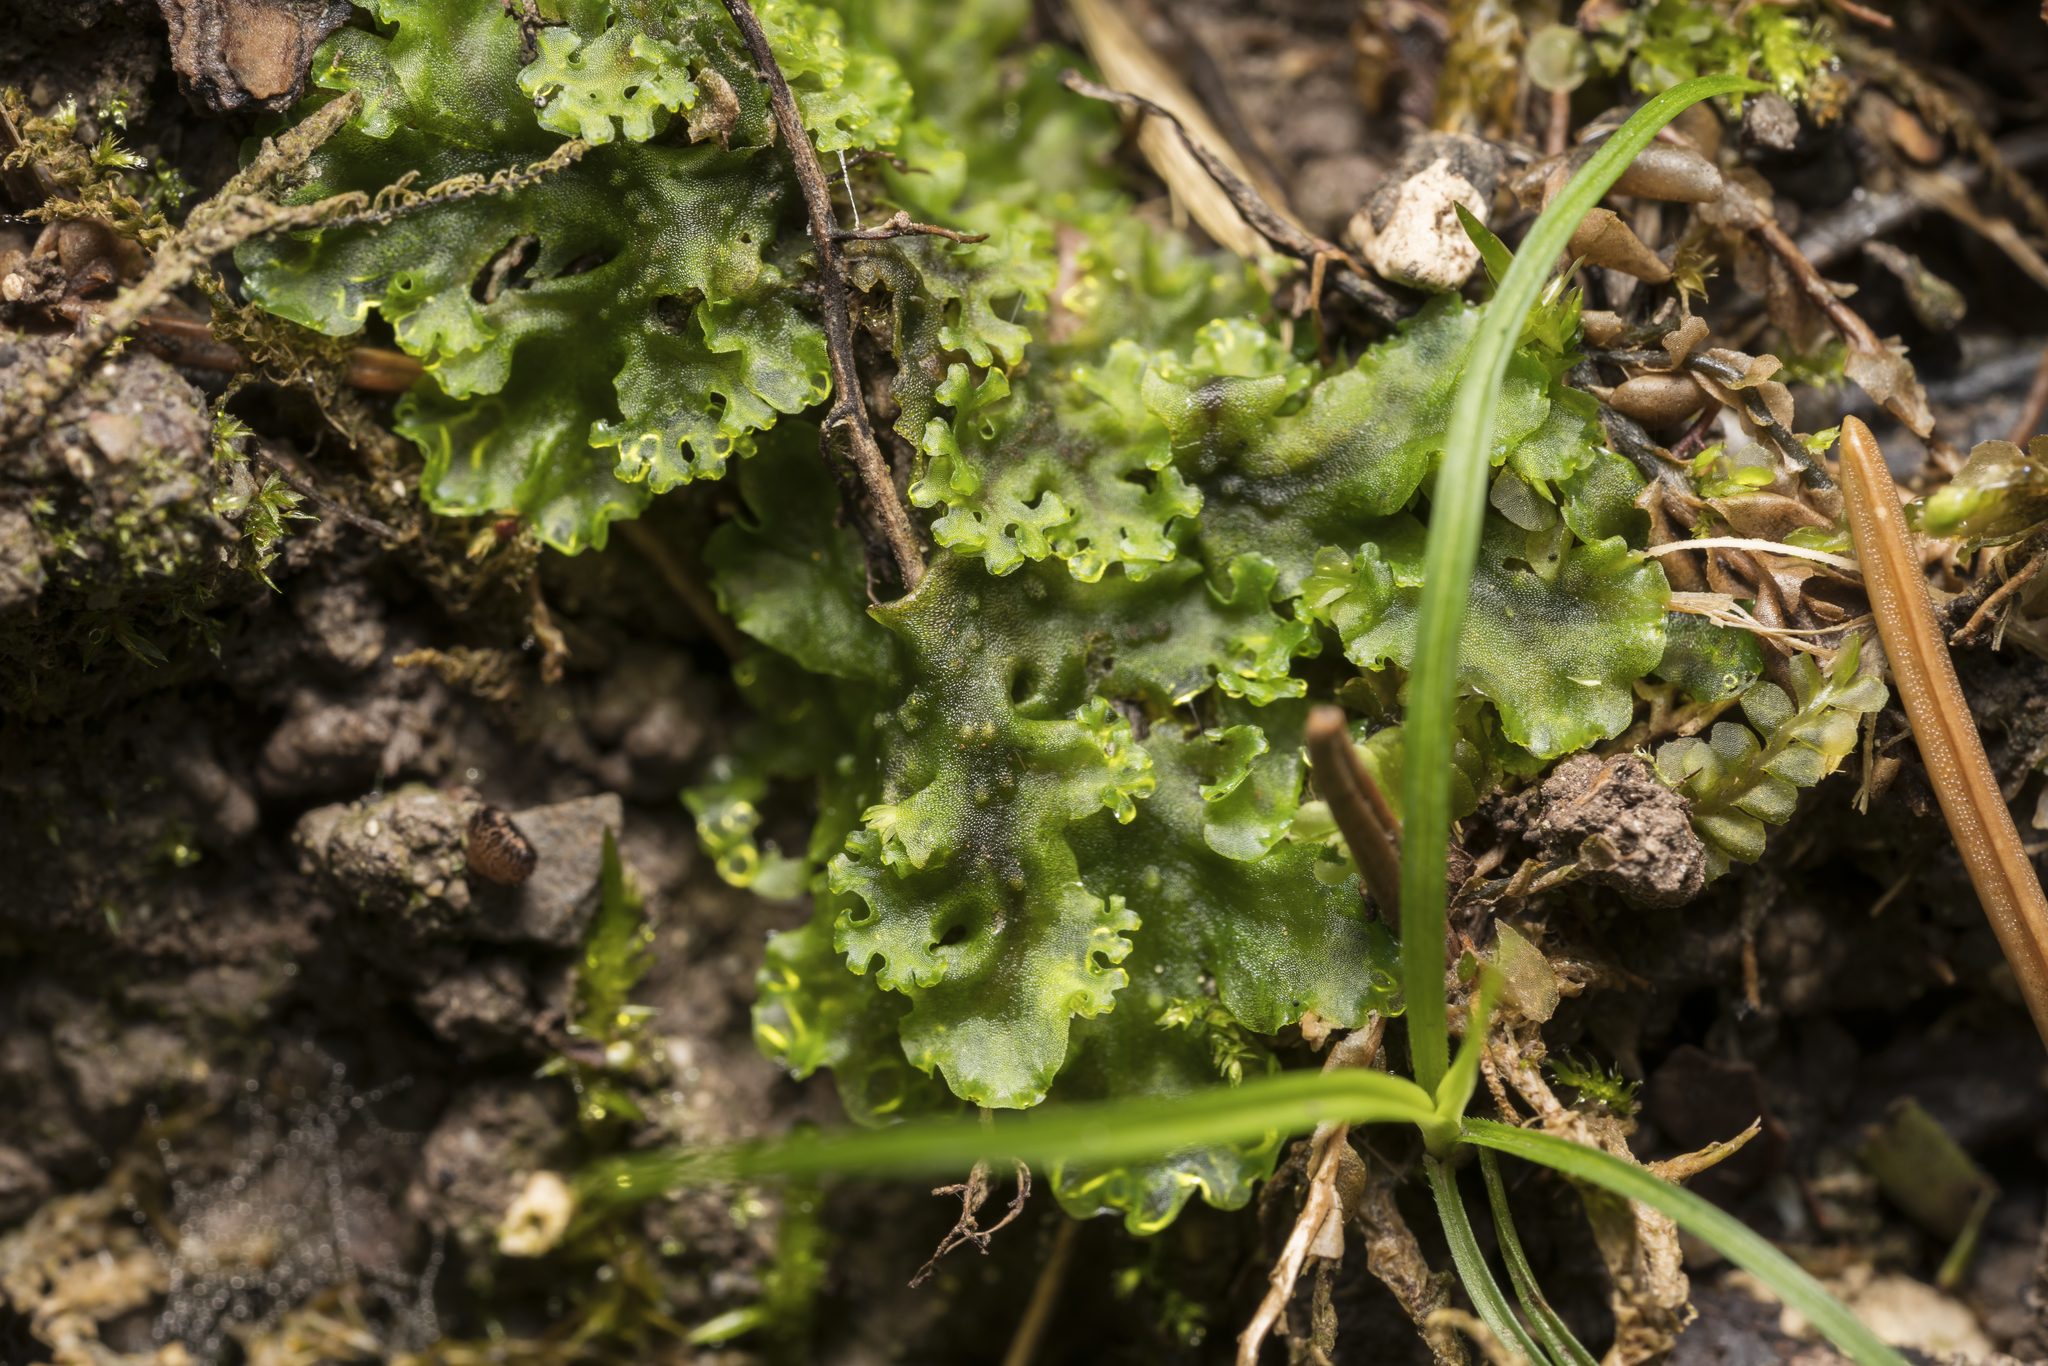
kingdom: Plantae
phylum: Marchantiophyta
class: Jungermanniopsida
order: Pelliales
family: Pelliaceae
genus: Apopellia
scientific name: Apopellia endiviifolia
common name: Endive pellia
